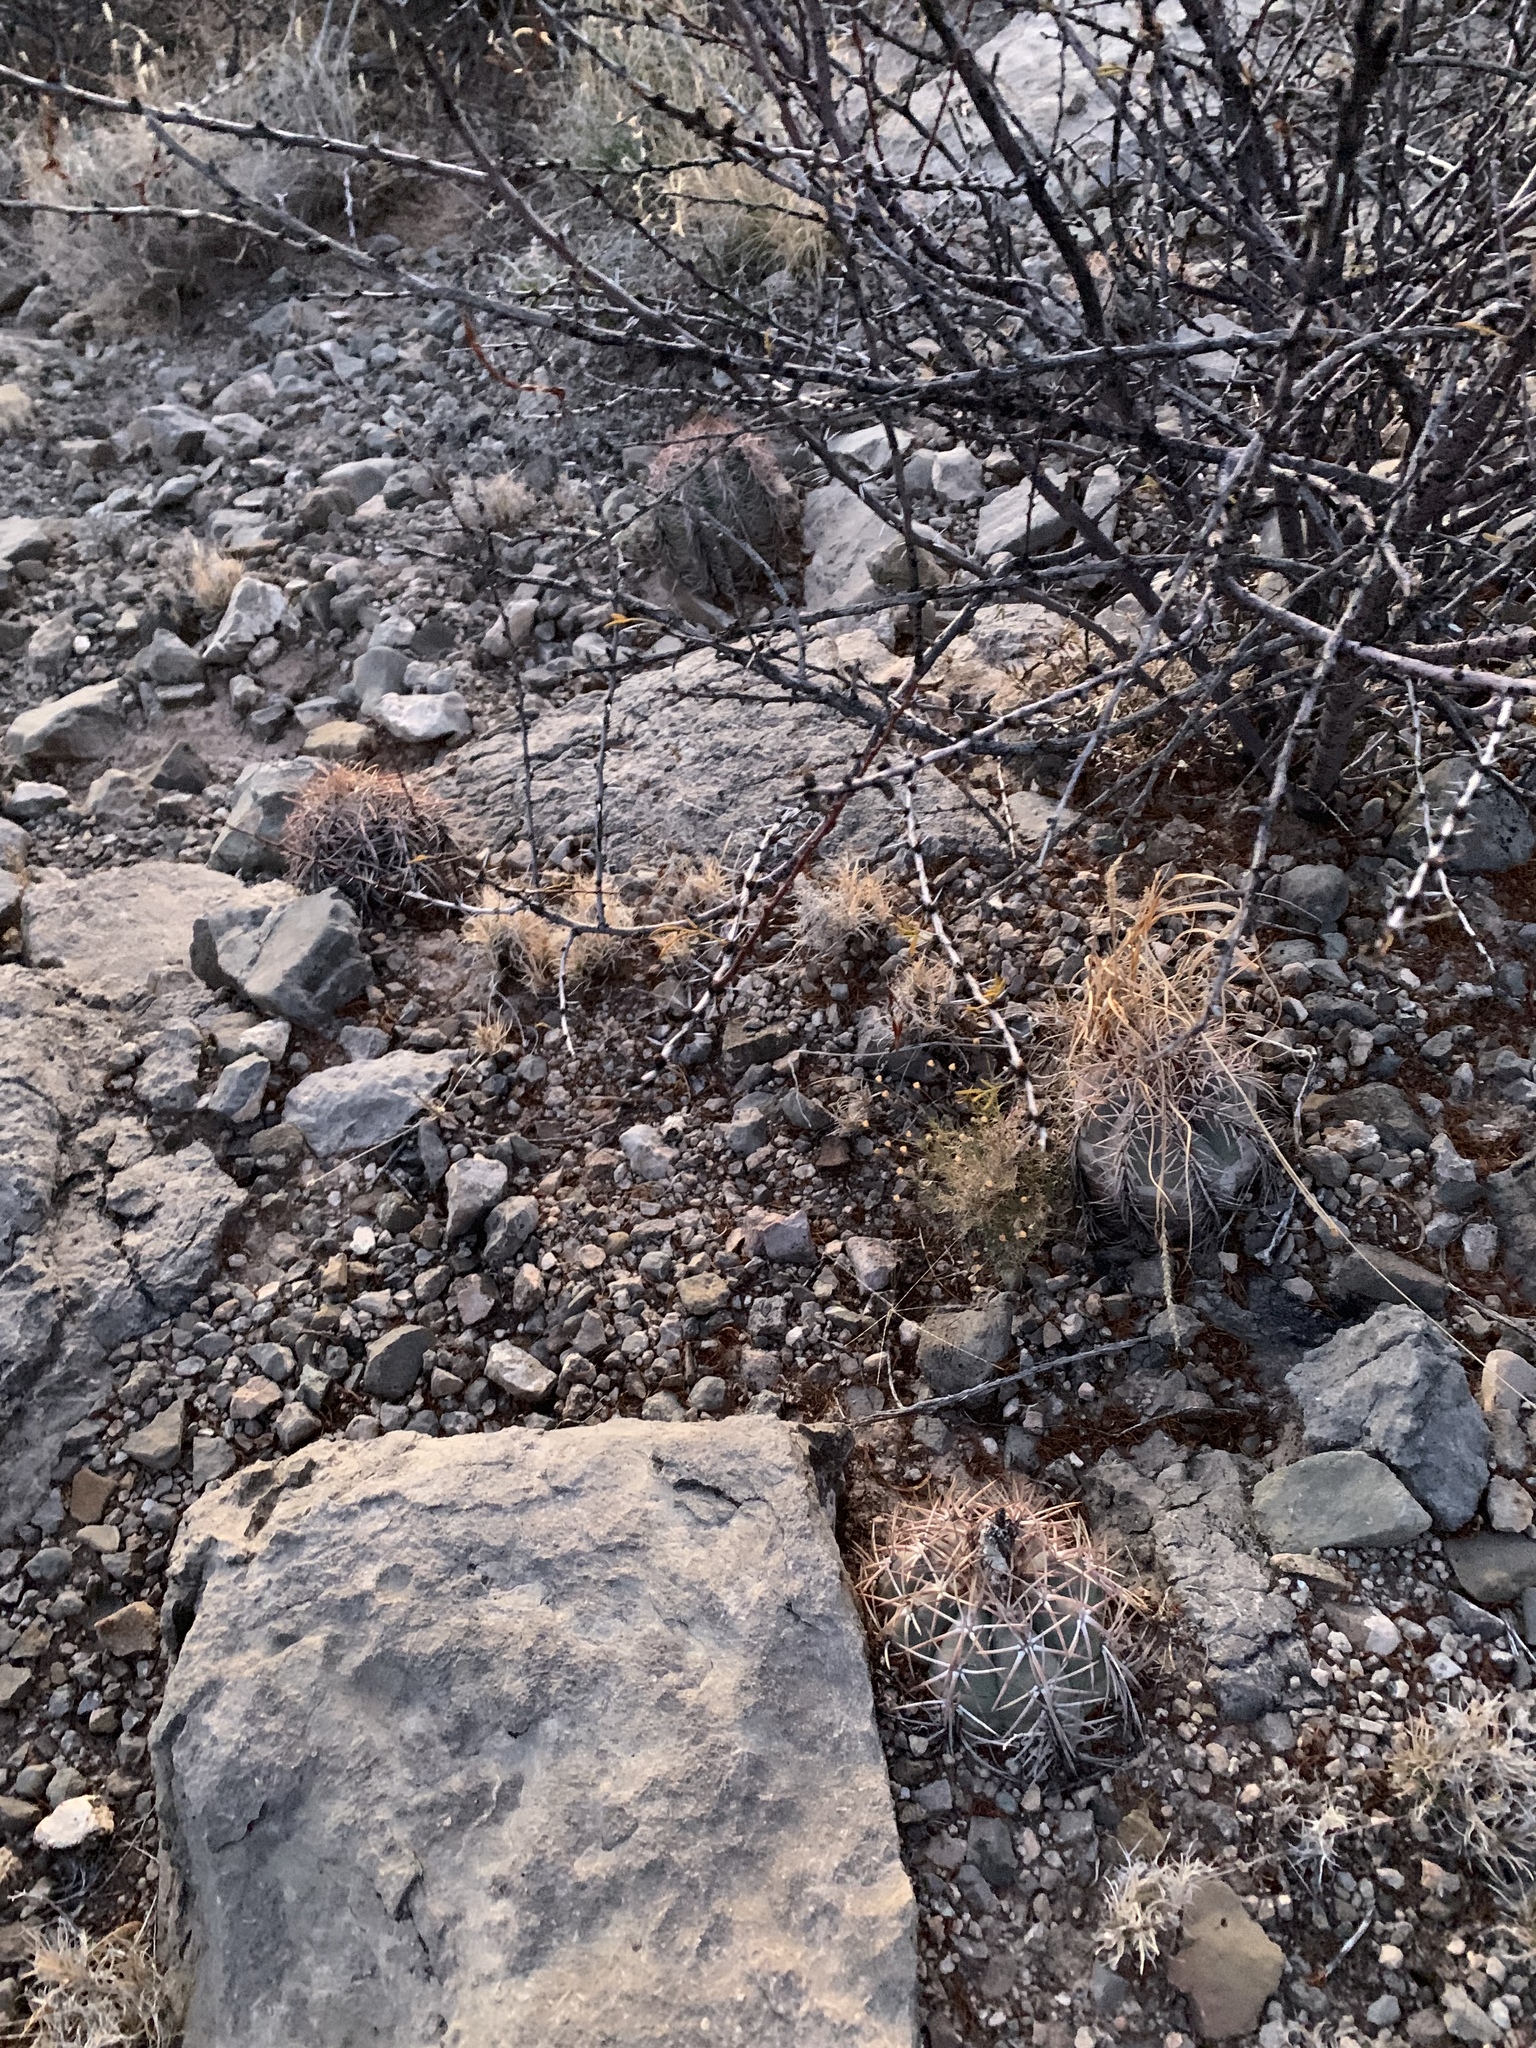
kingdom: Plantae
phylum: Tracheophyta
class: Magnoliopsida
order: Caryophyllales
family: Cactaceae
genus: Echinocactus
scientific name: Echinocactus horizonthalonius
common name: Devilshead
